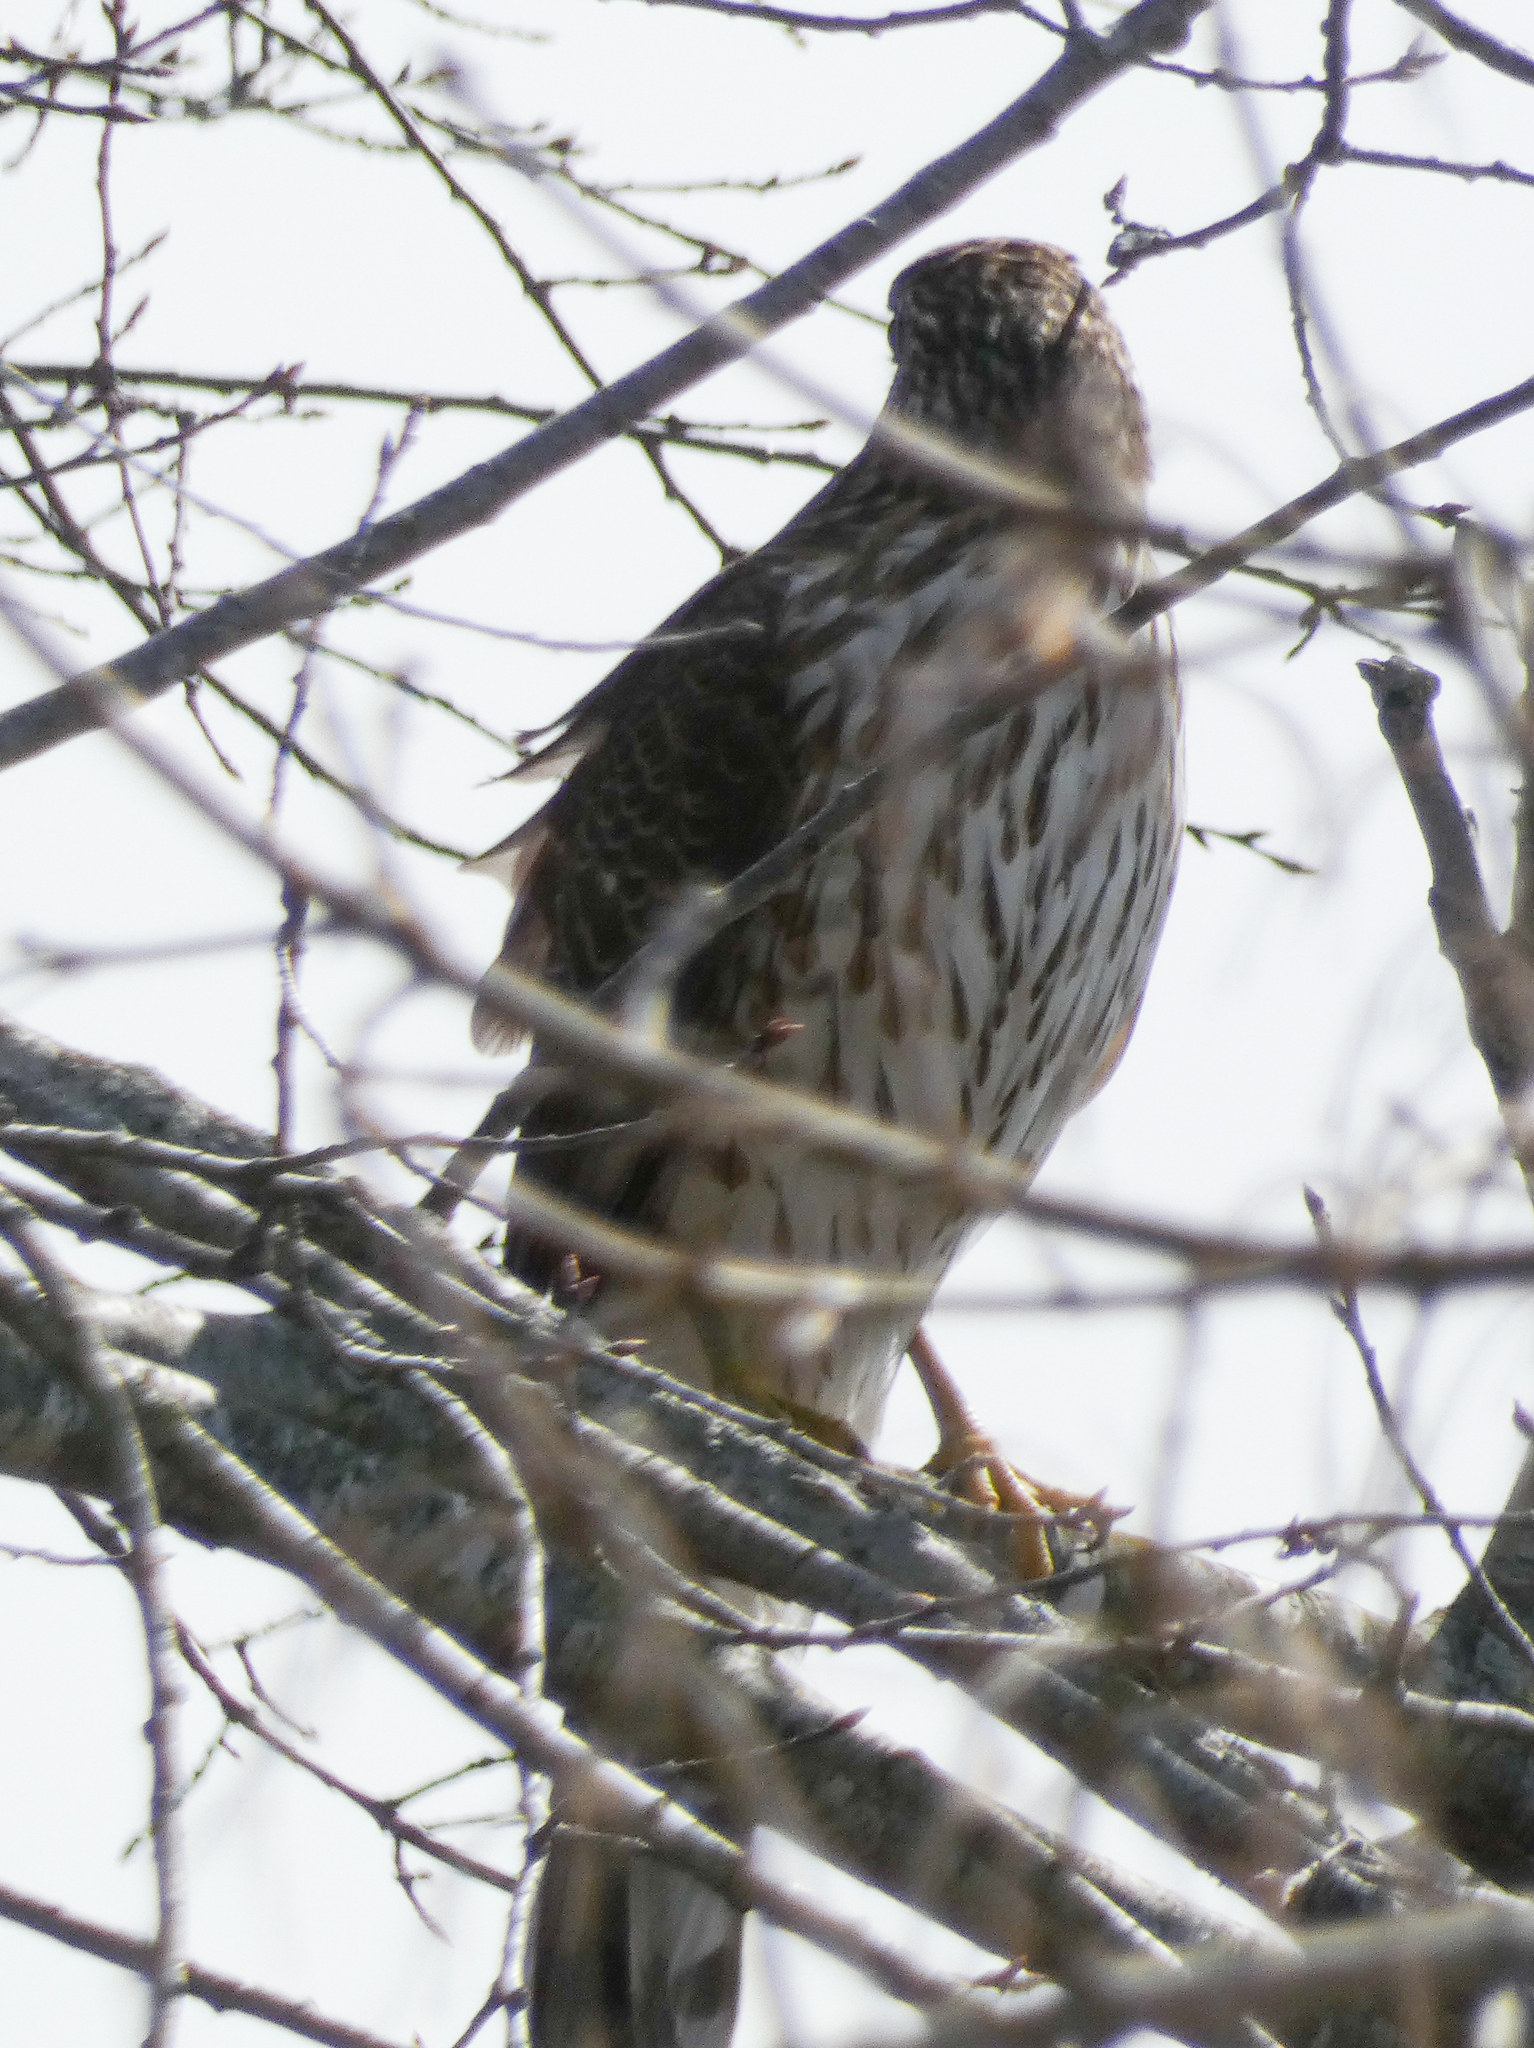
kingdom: Animalia
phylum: Chordata
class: Aves
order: Accipitriformes
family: Accipitridae
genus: Accipiter
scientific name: Accipiter cooperii
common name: Cooper's hawk
